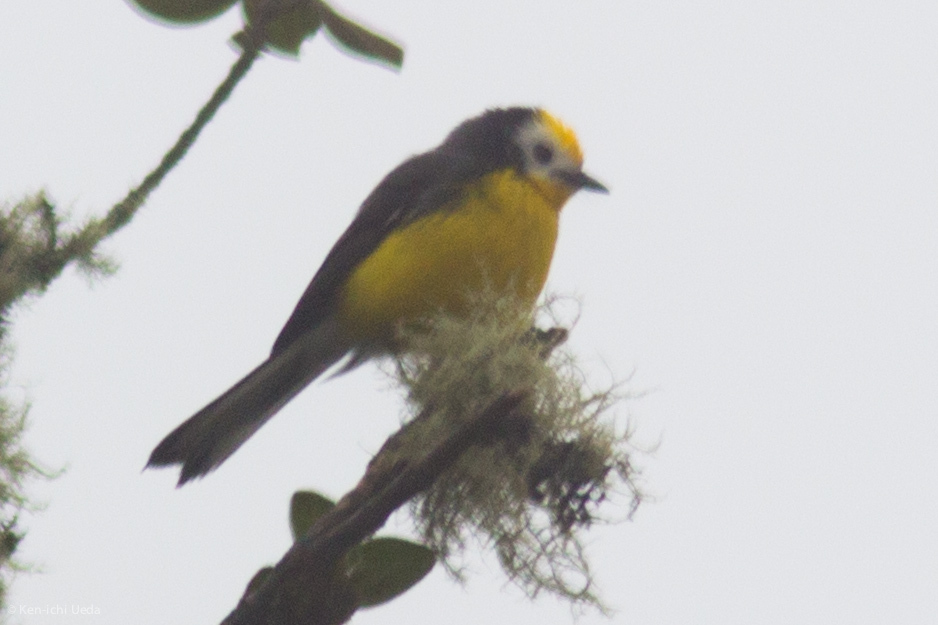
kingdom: Animalia
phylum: Chordata
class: Aves
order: Passeriformes
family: Parulidae
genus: Myioborus
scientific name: Myioborus ornatus
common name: Golden-fronted whitestart
